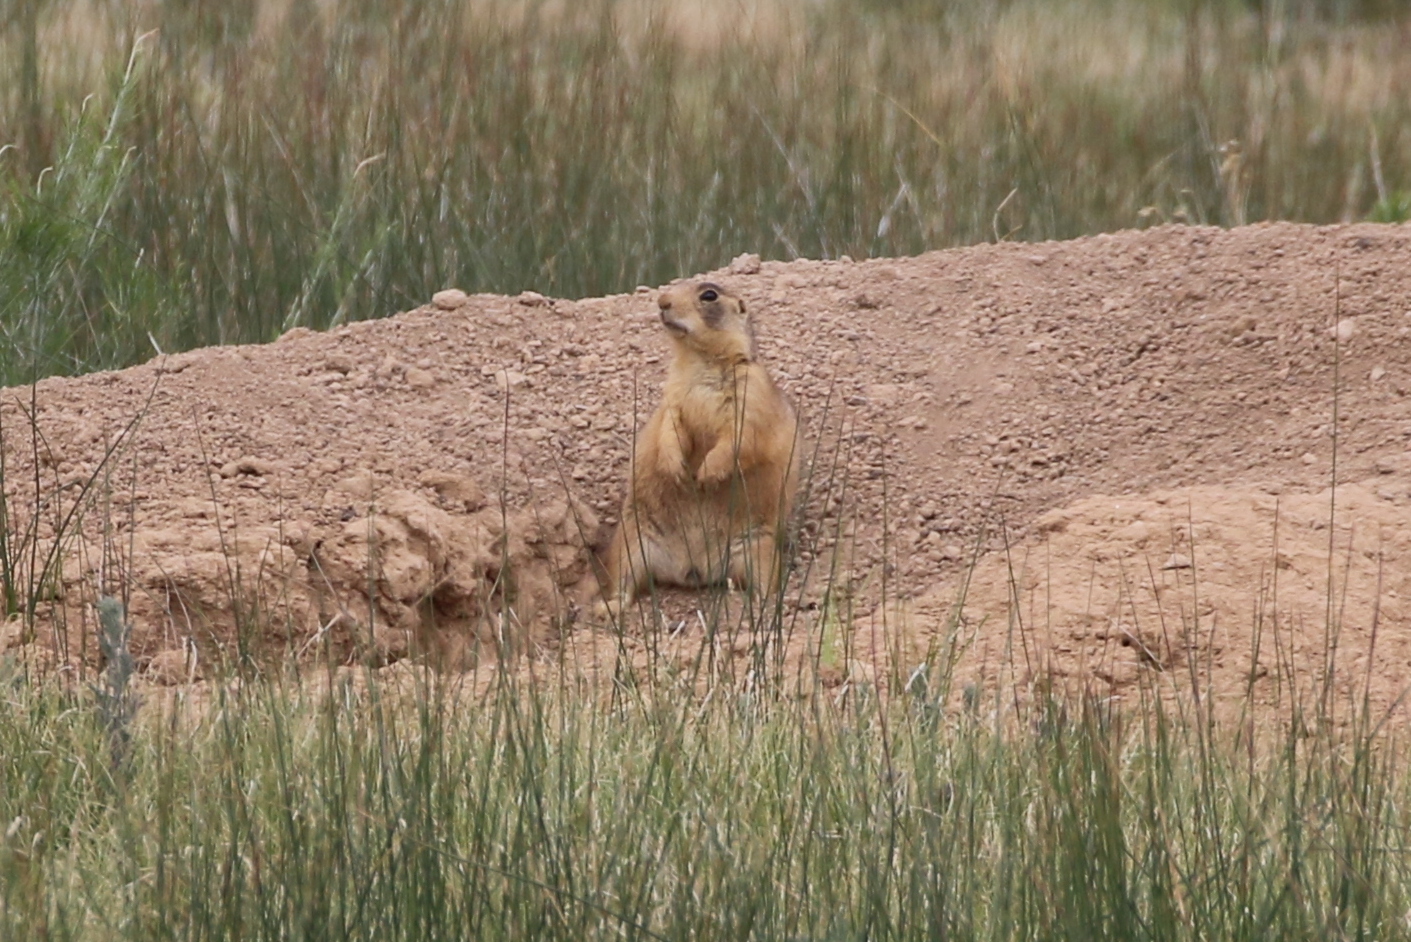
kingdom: Animalia
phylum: Chordata
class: Mammalia
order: Rodentia
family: Sciuridae
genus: Cynomys
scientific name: Cynomys parvidens
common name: Utah prairie dog
